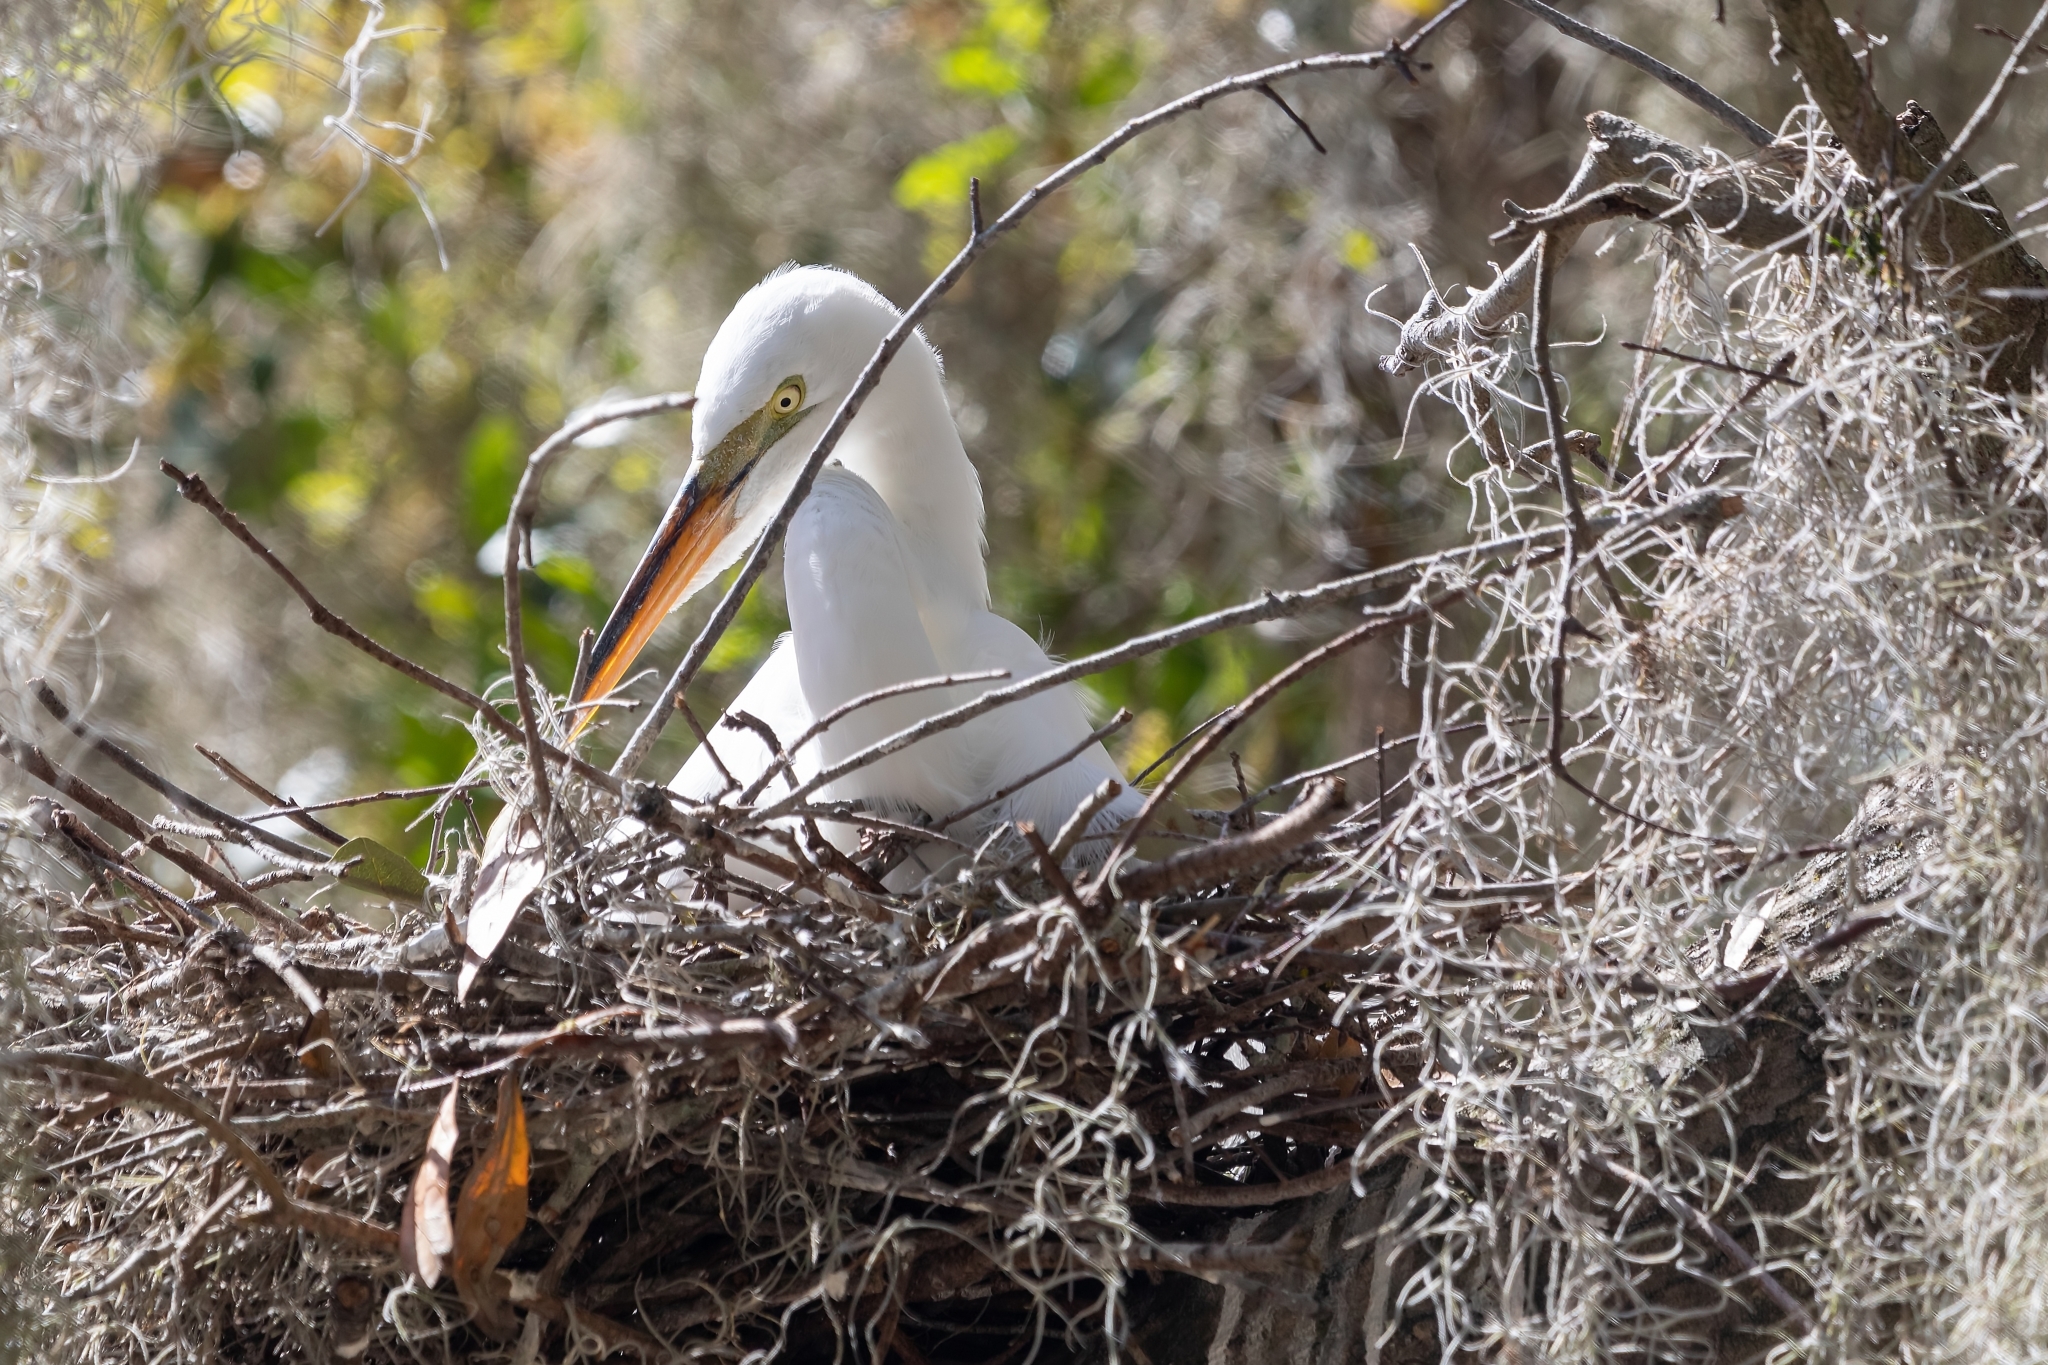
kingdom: Animalia
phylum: Chordata
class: Aves
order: Pelecaniformes
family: Ardeidae
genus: Ardea
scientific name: Ardea alba
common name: Great egret
